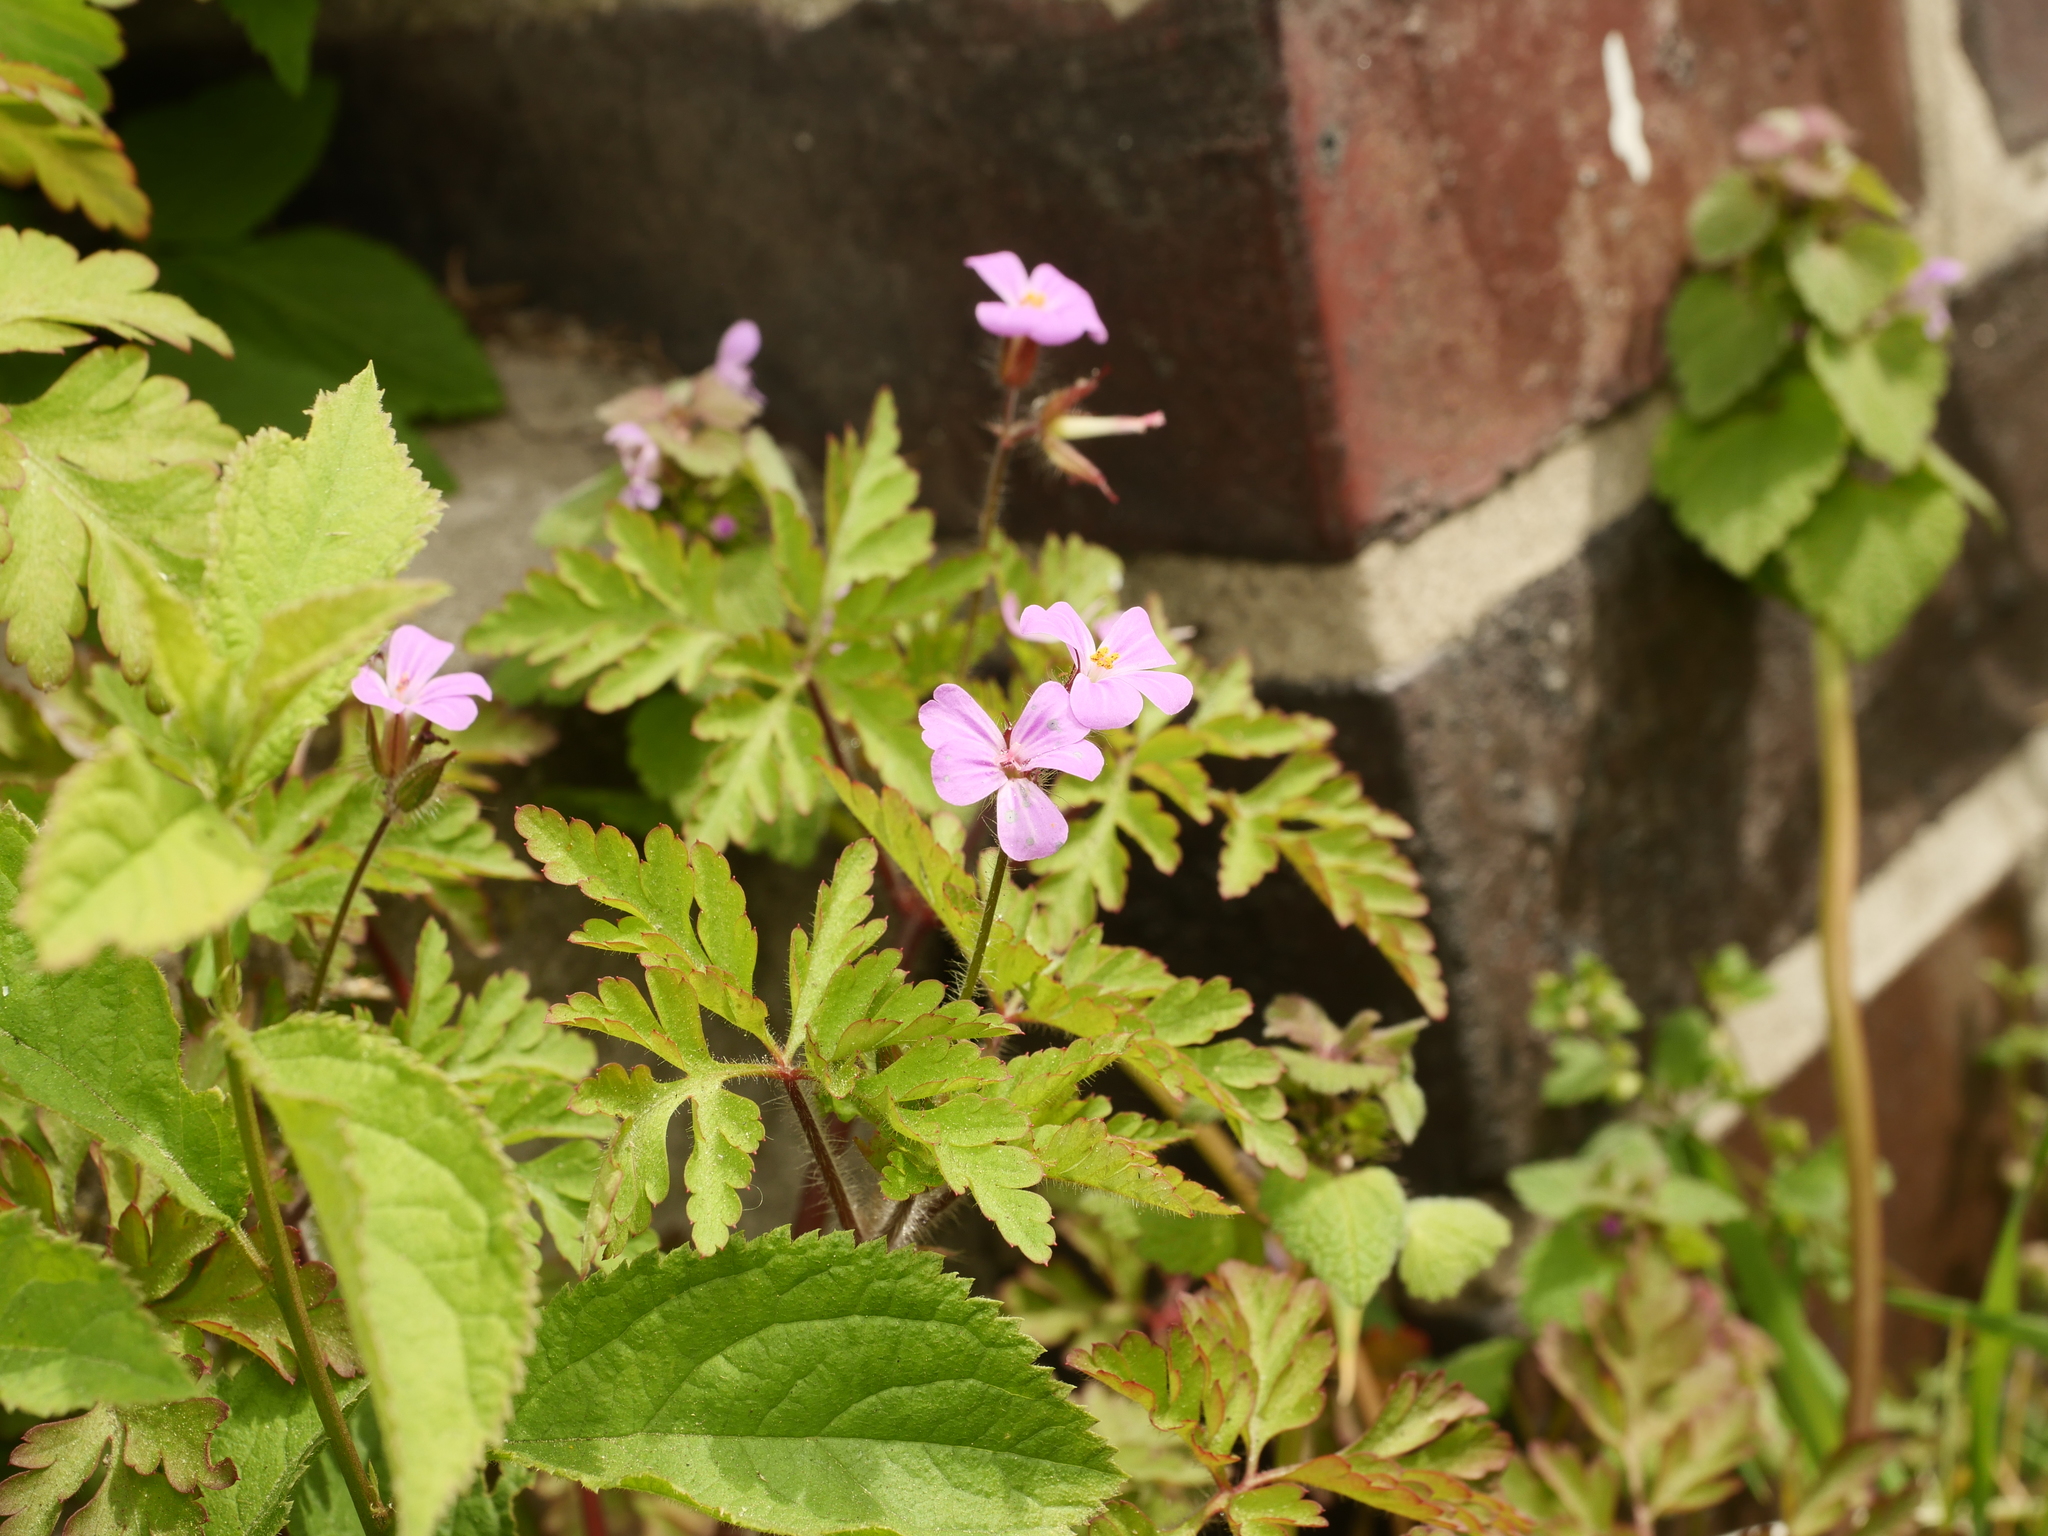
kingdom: Plantae
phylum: Tracheophyta
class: Magnoliopsida
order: Geraniales
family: Geraniaceae
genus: Geranium
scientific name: Geranium robertianum
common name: Herb-robert
